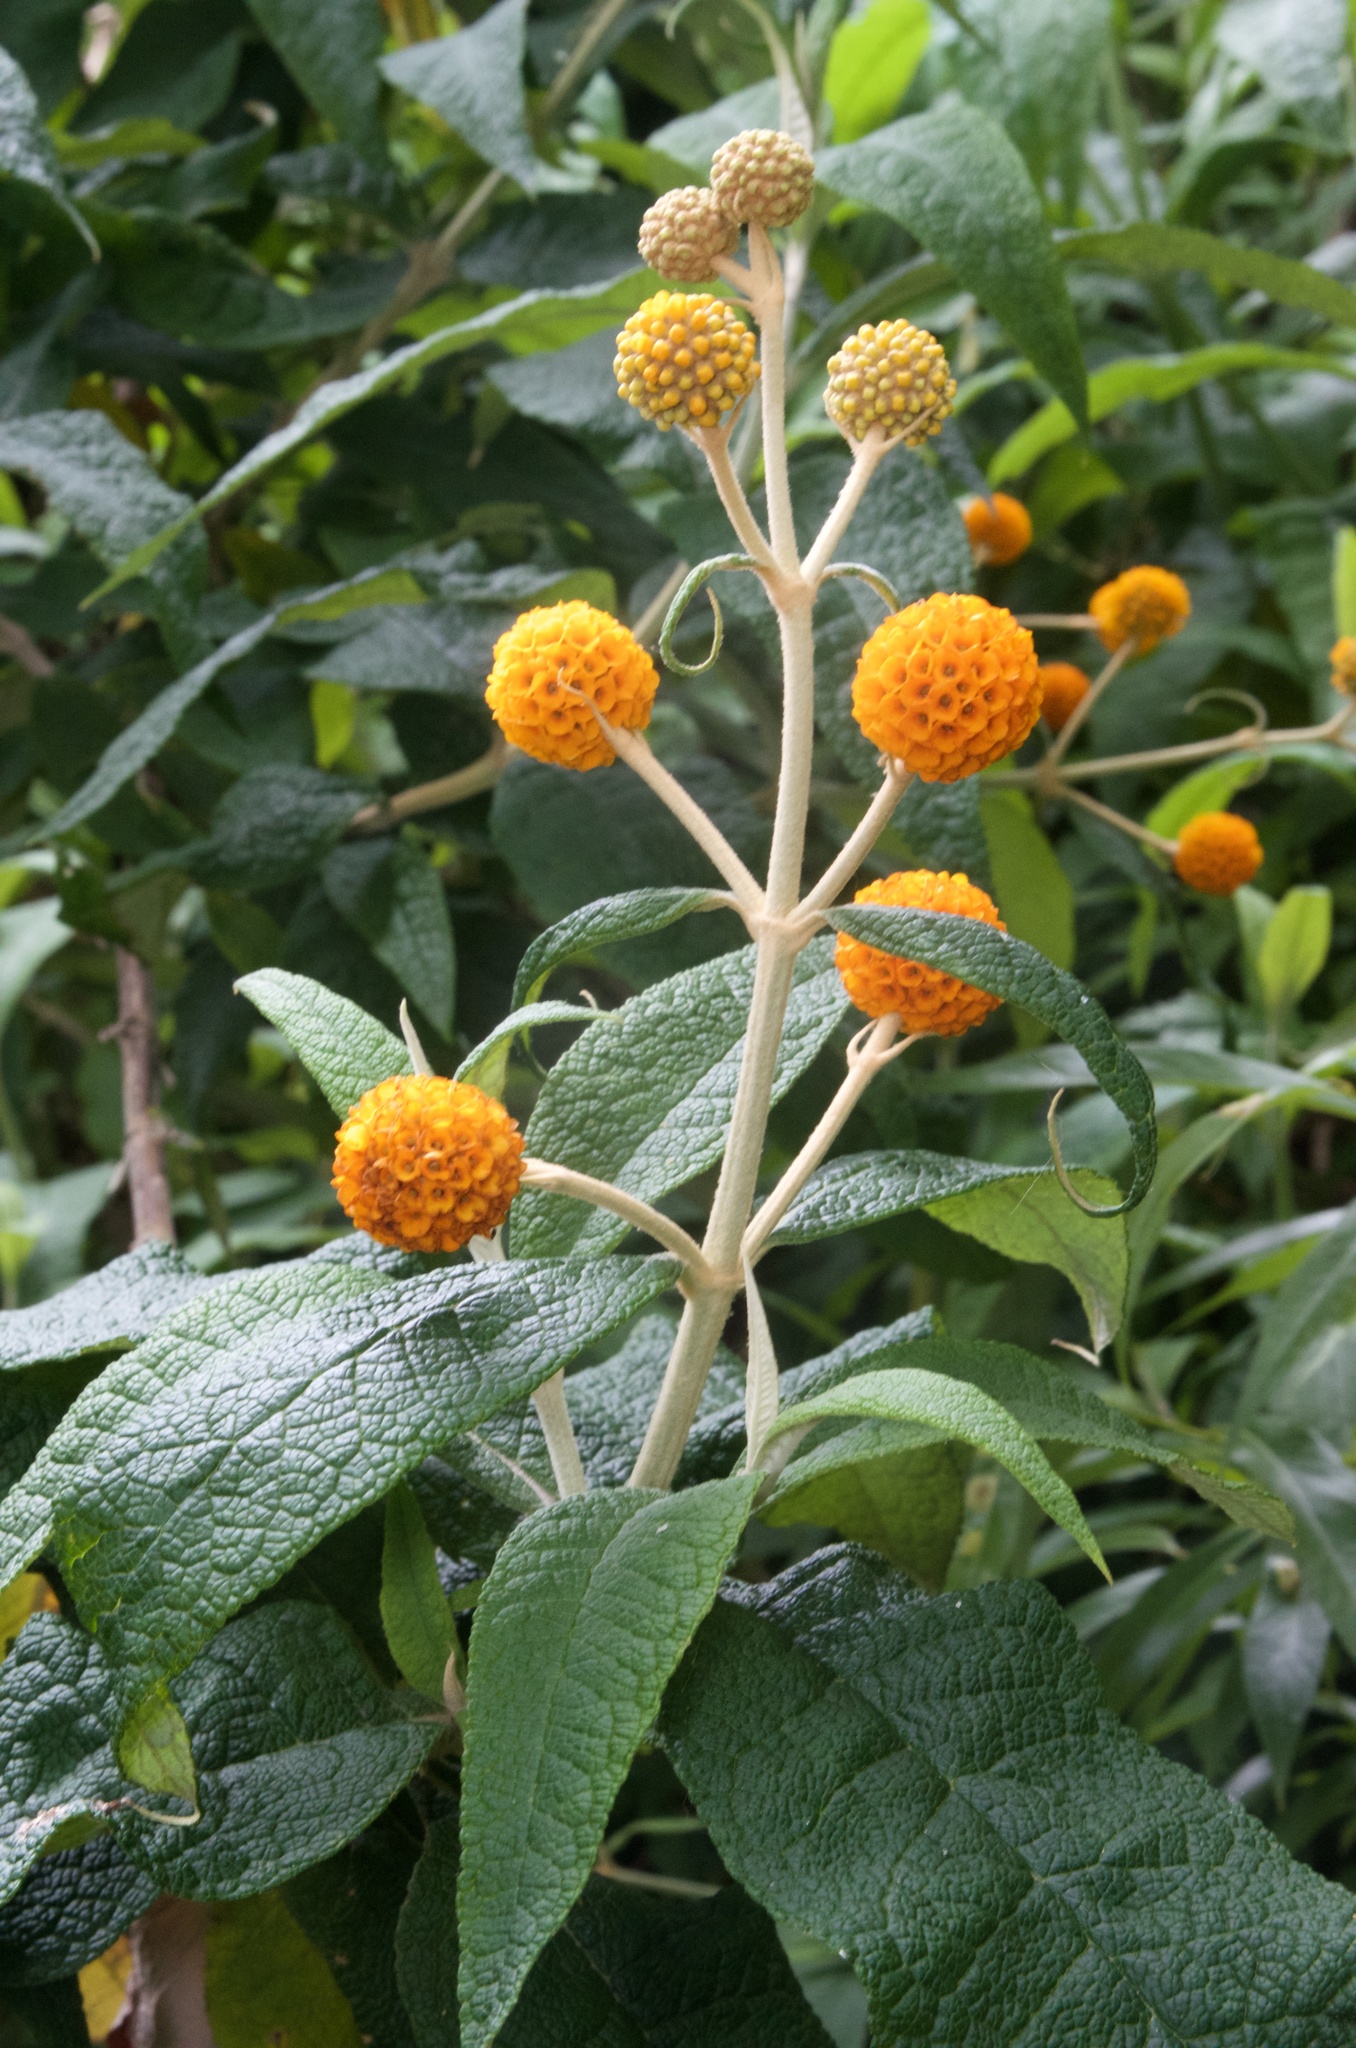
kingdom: Plantae
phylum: Tracheophyta
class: Magnoliopsida
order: Lamiales
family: Scrophulariaceae
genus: Buddleja
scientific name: Buddleja globosa
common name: Orange-ball-tree
